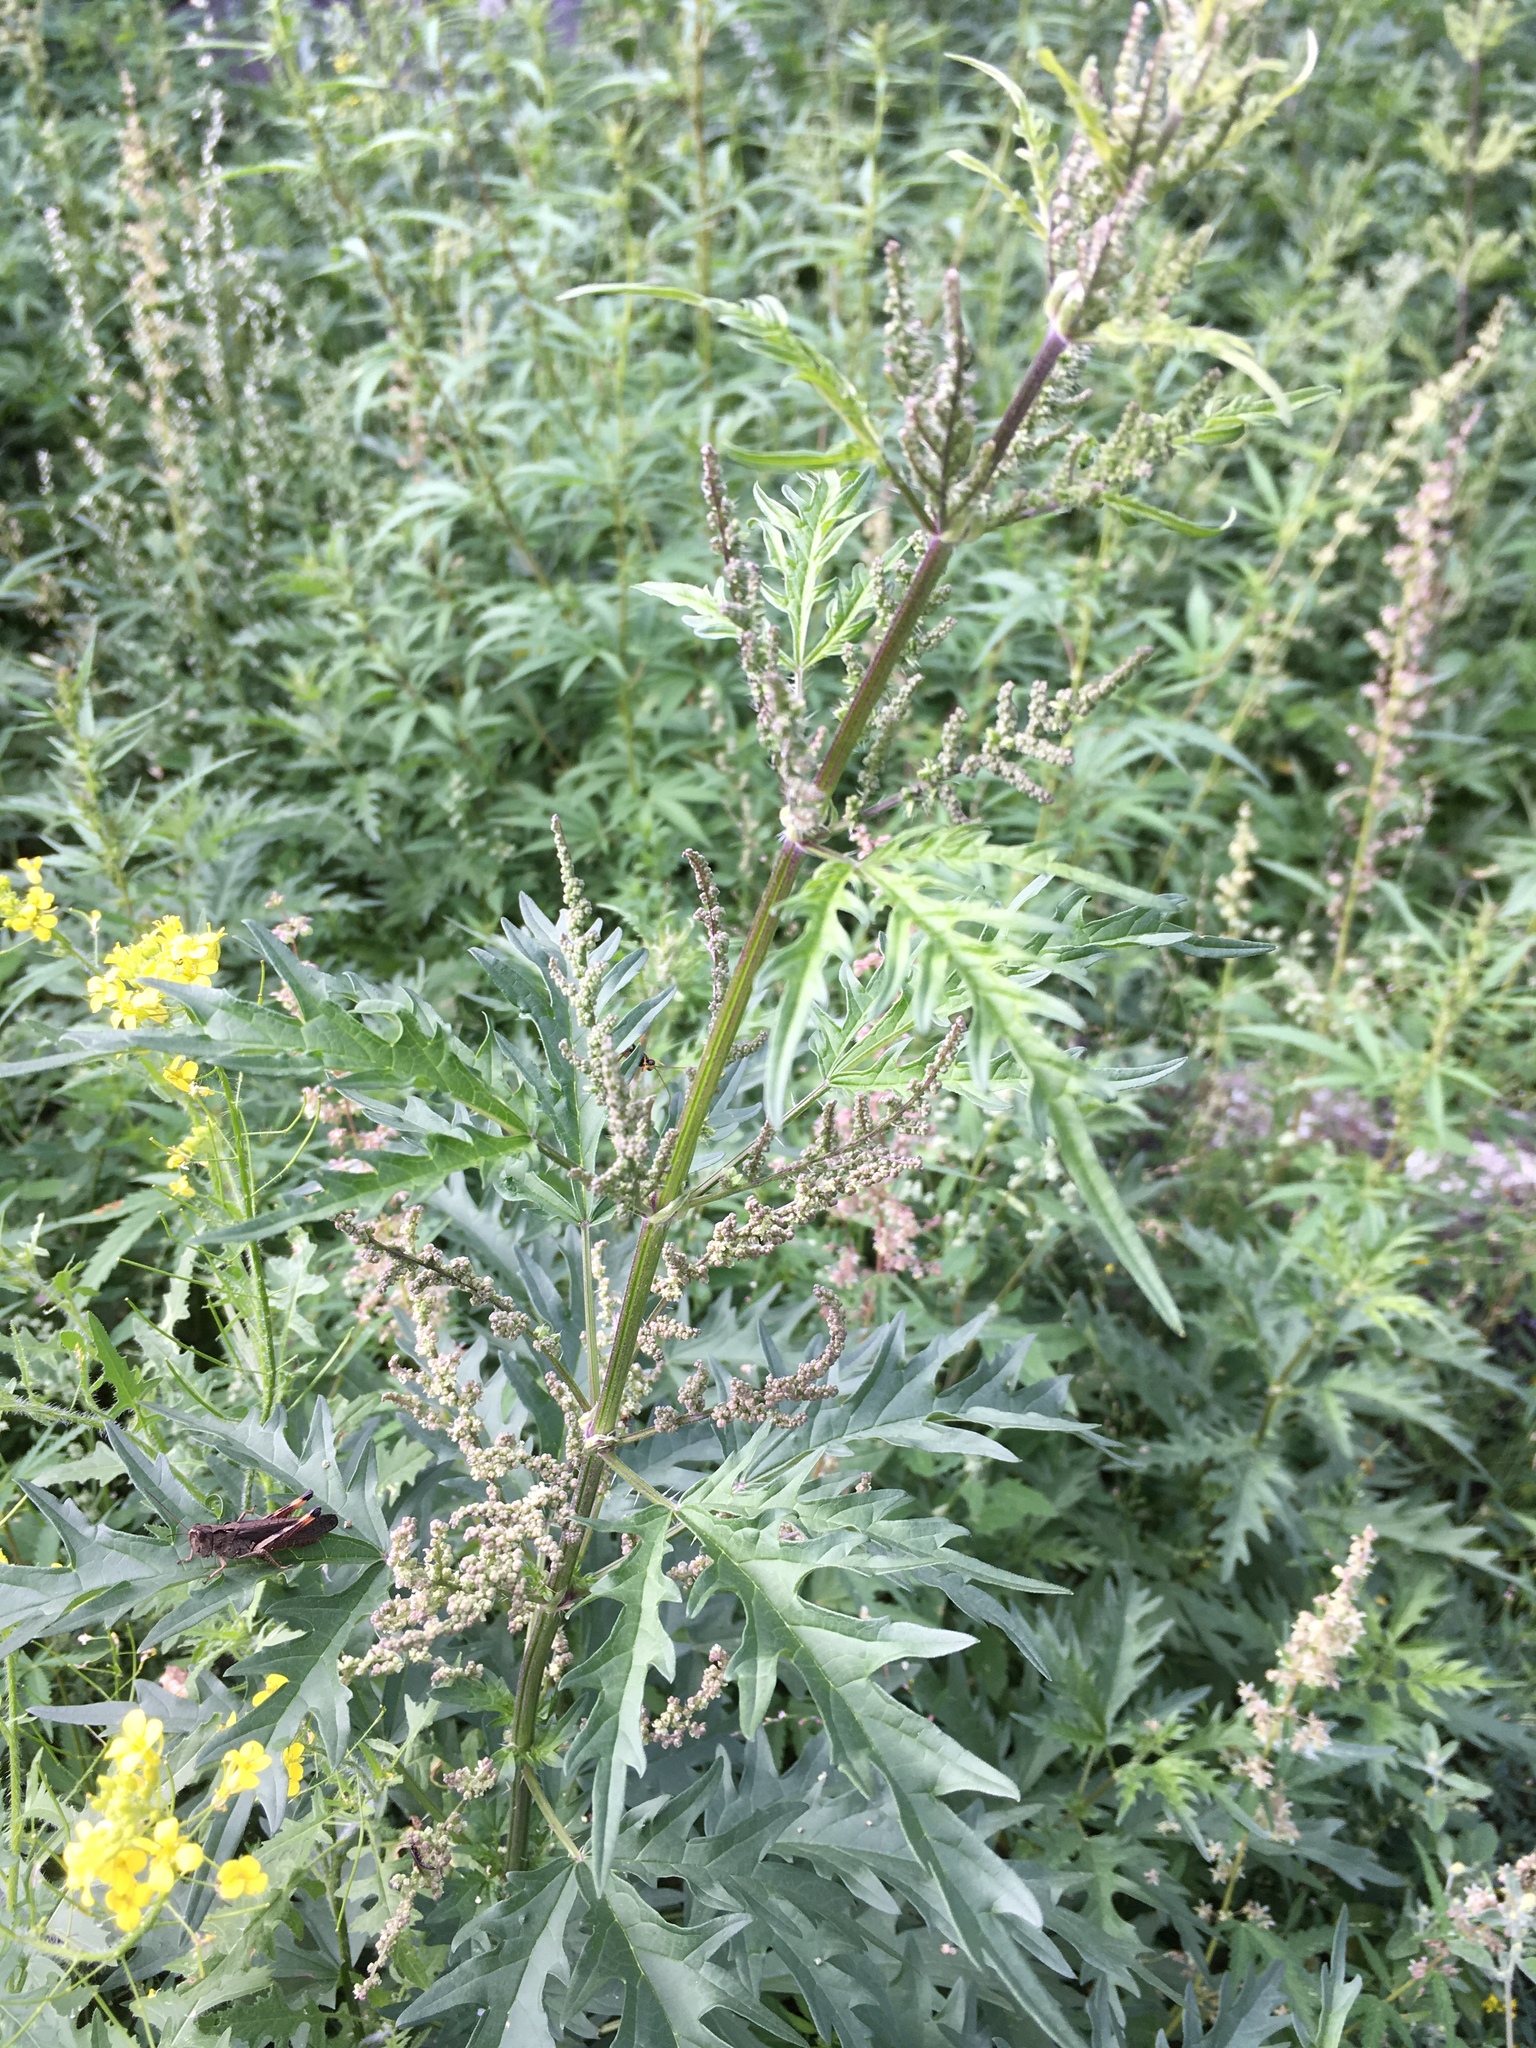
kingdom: Plantae
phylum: Tracheophyta
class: Magnoliopsida
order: Rosales
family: Urticaceae
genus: Urtica
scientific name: Urtica cannabina
